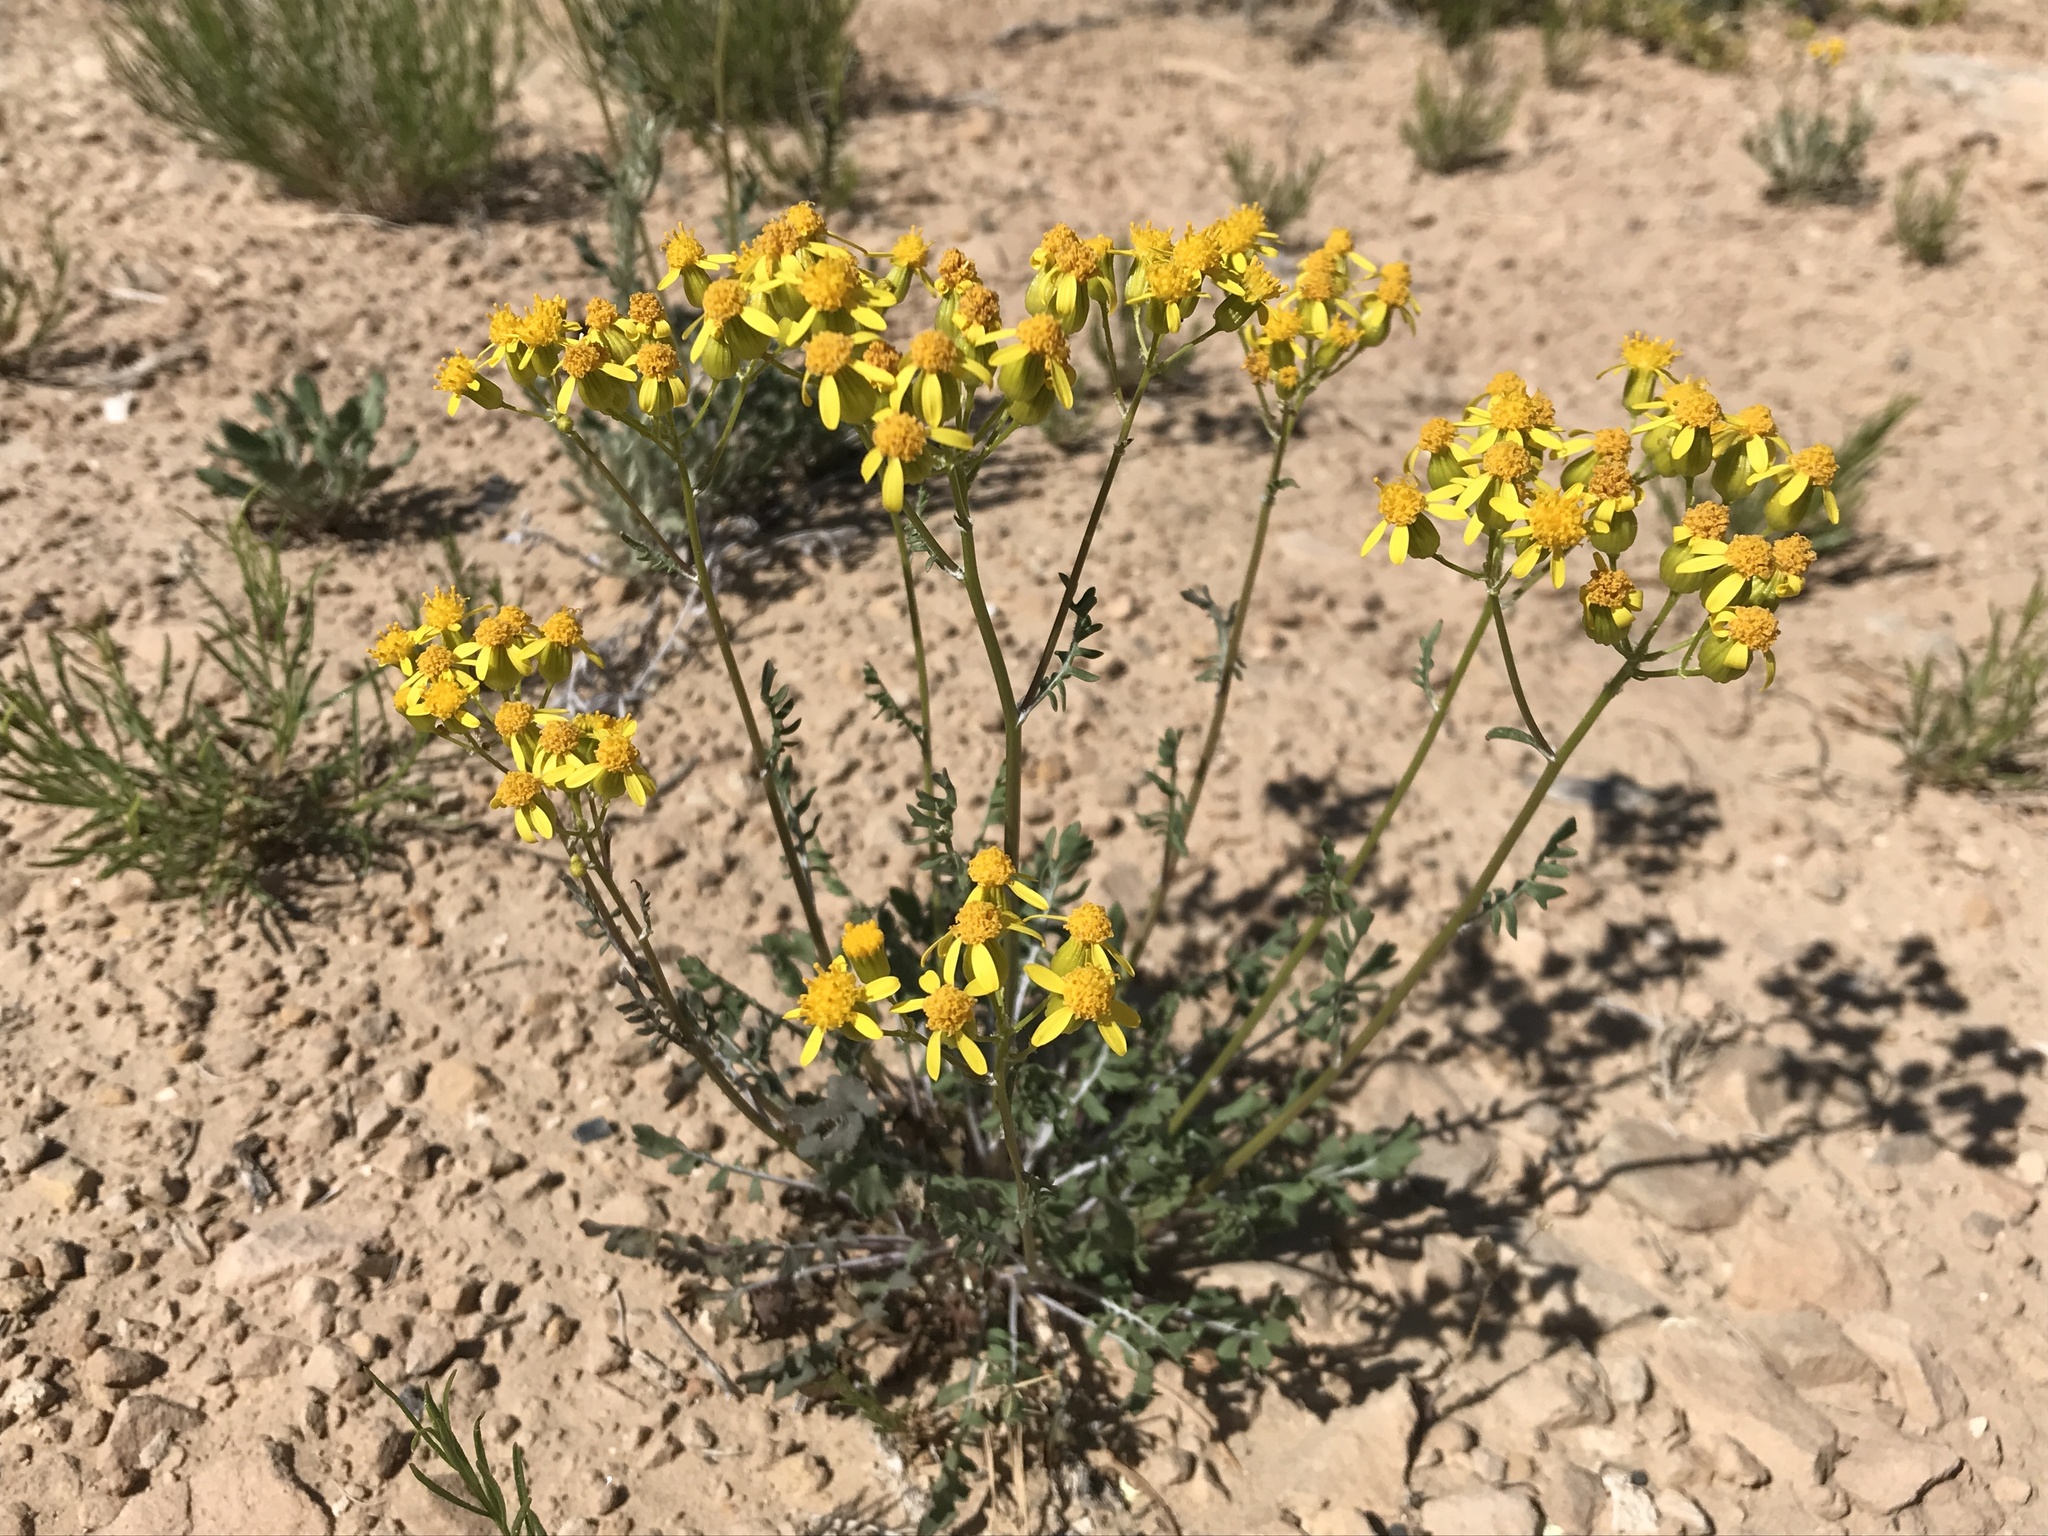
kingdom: Plantae
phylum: Tracheophyta
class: Magnoliopsida
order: Asterales
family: Asteraceae
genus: Packera
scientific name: Packera multilobata
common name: Lobe-leaf groundsel
